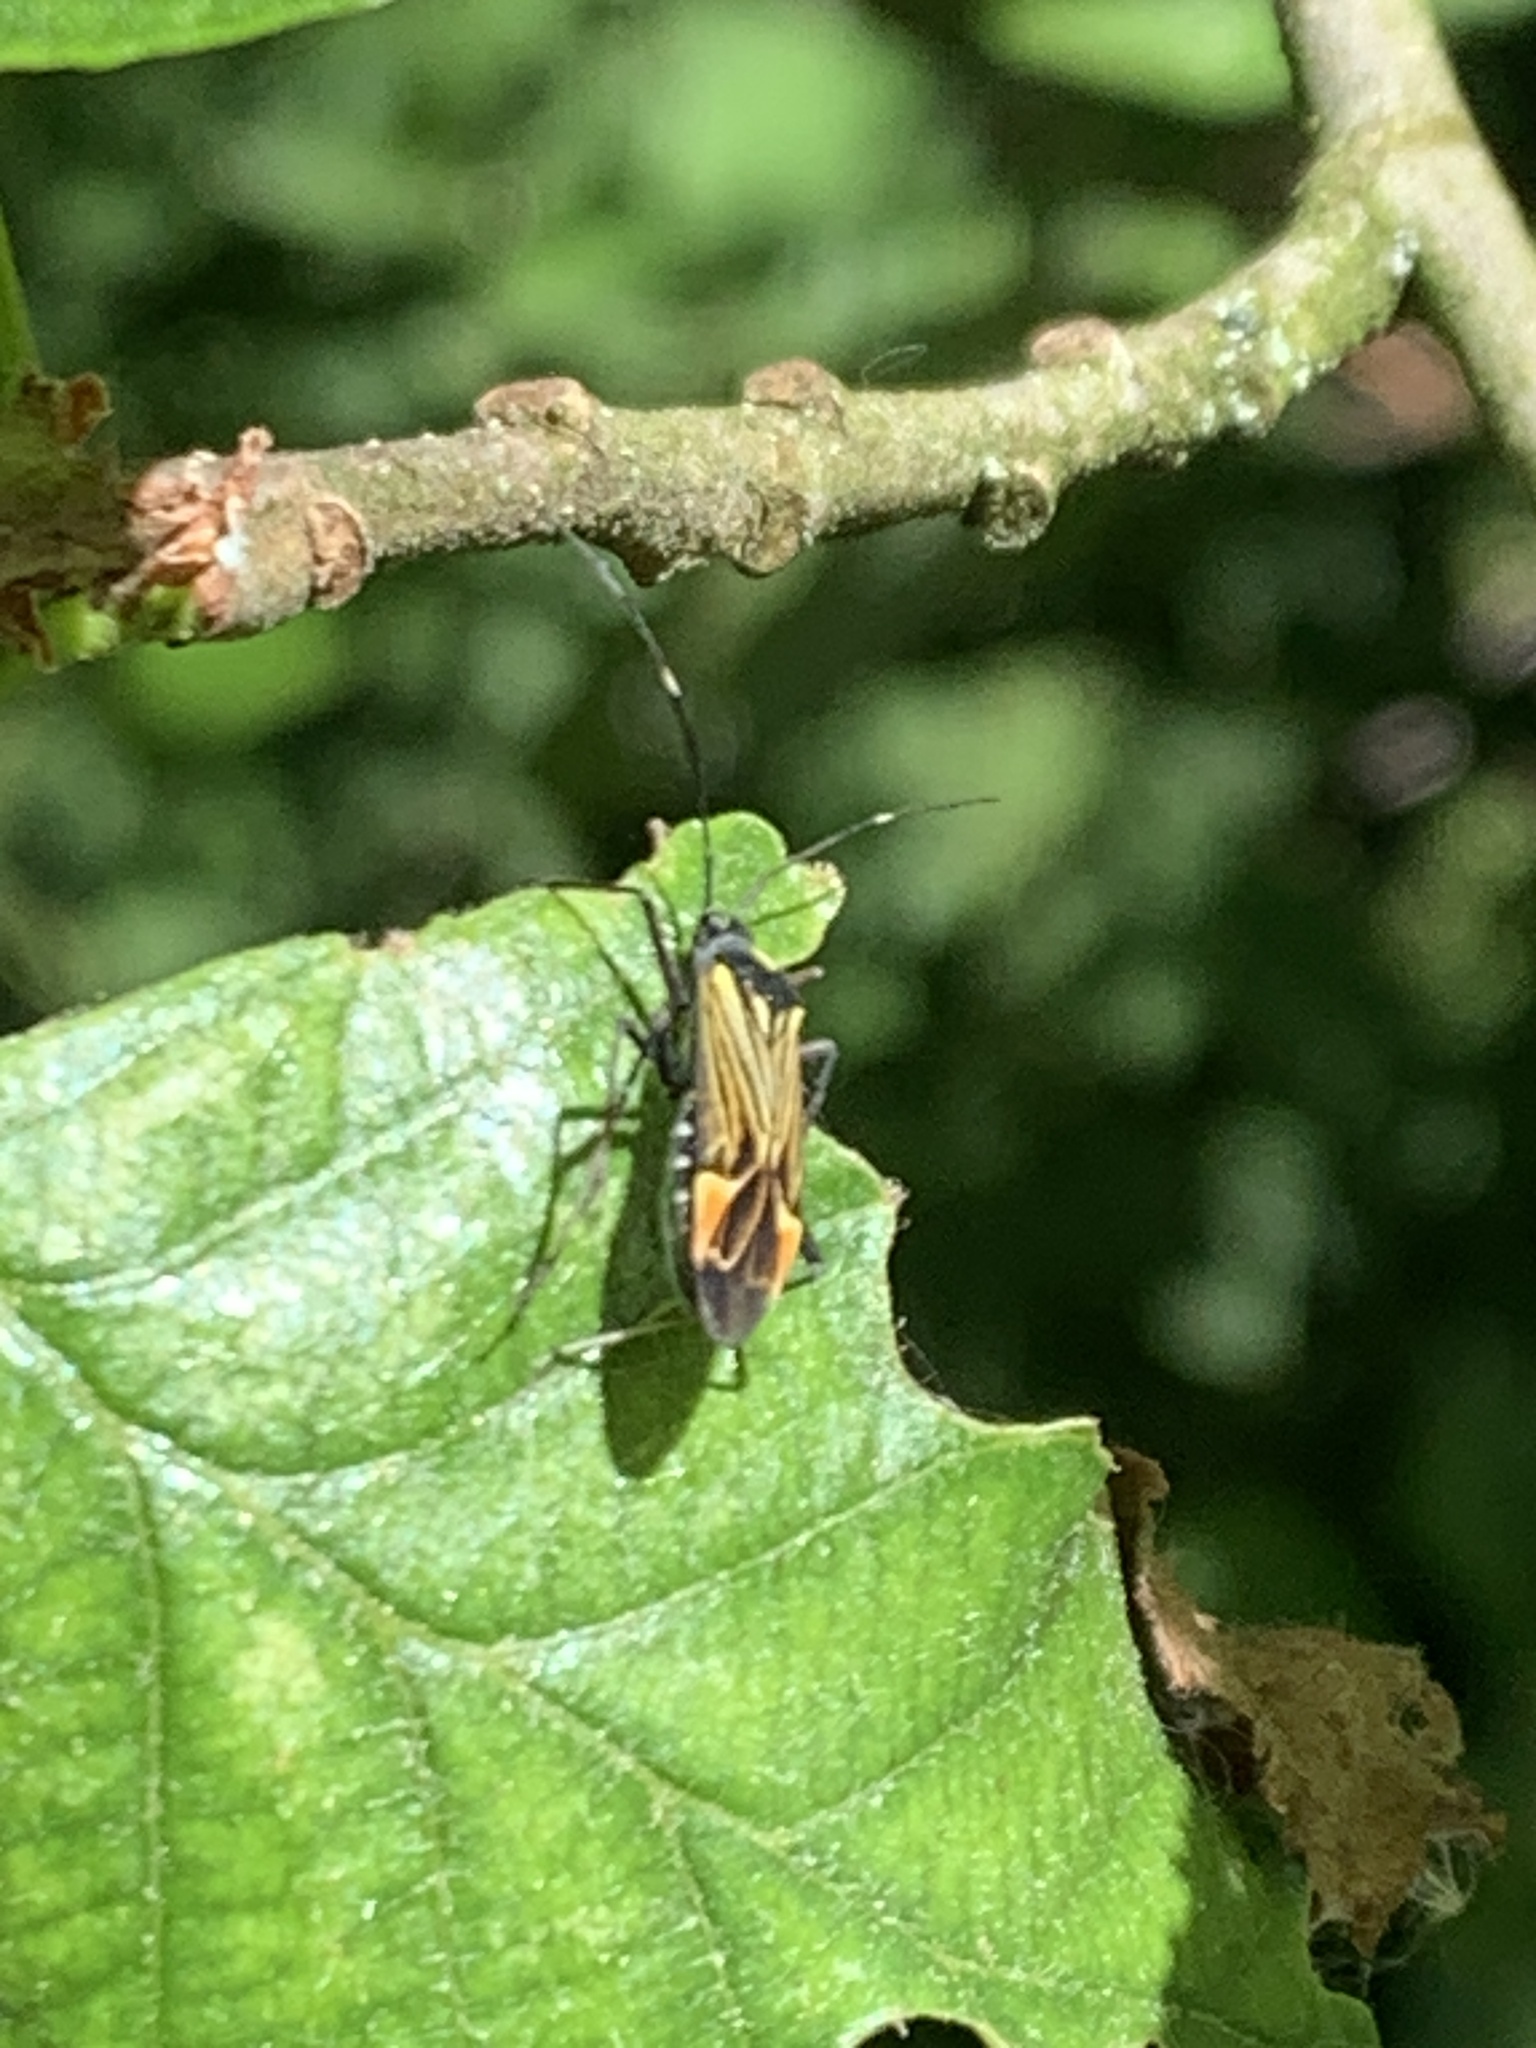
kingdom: Animalia
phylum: Arthropoda
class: Insecta
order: Hemiptera
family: Miridae
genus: Miris
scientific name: Miris striatus
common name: Fine streaked bugkin
